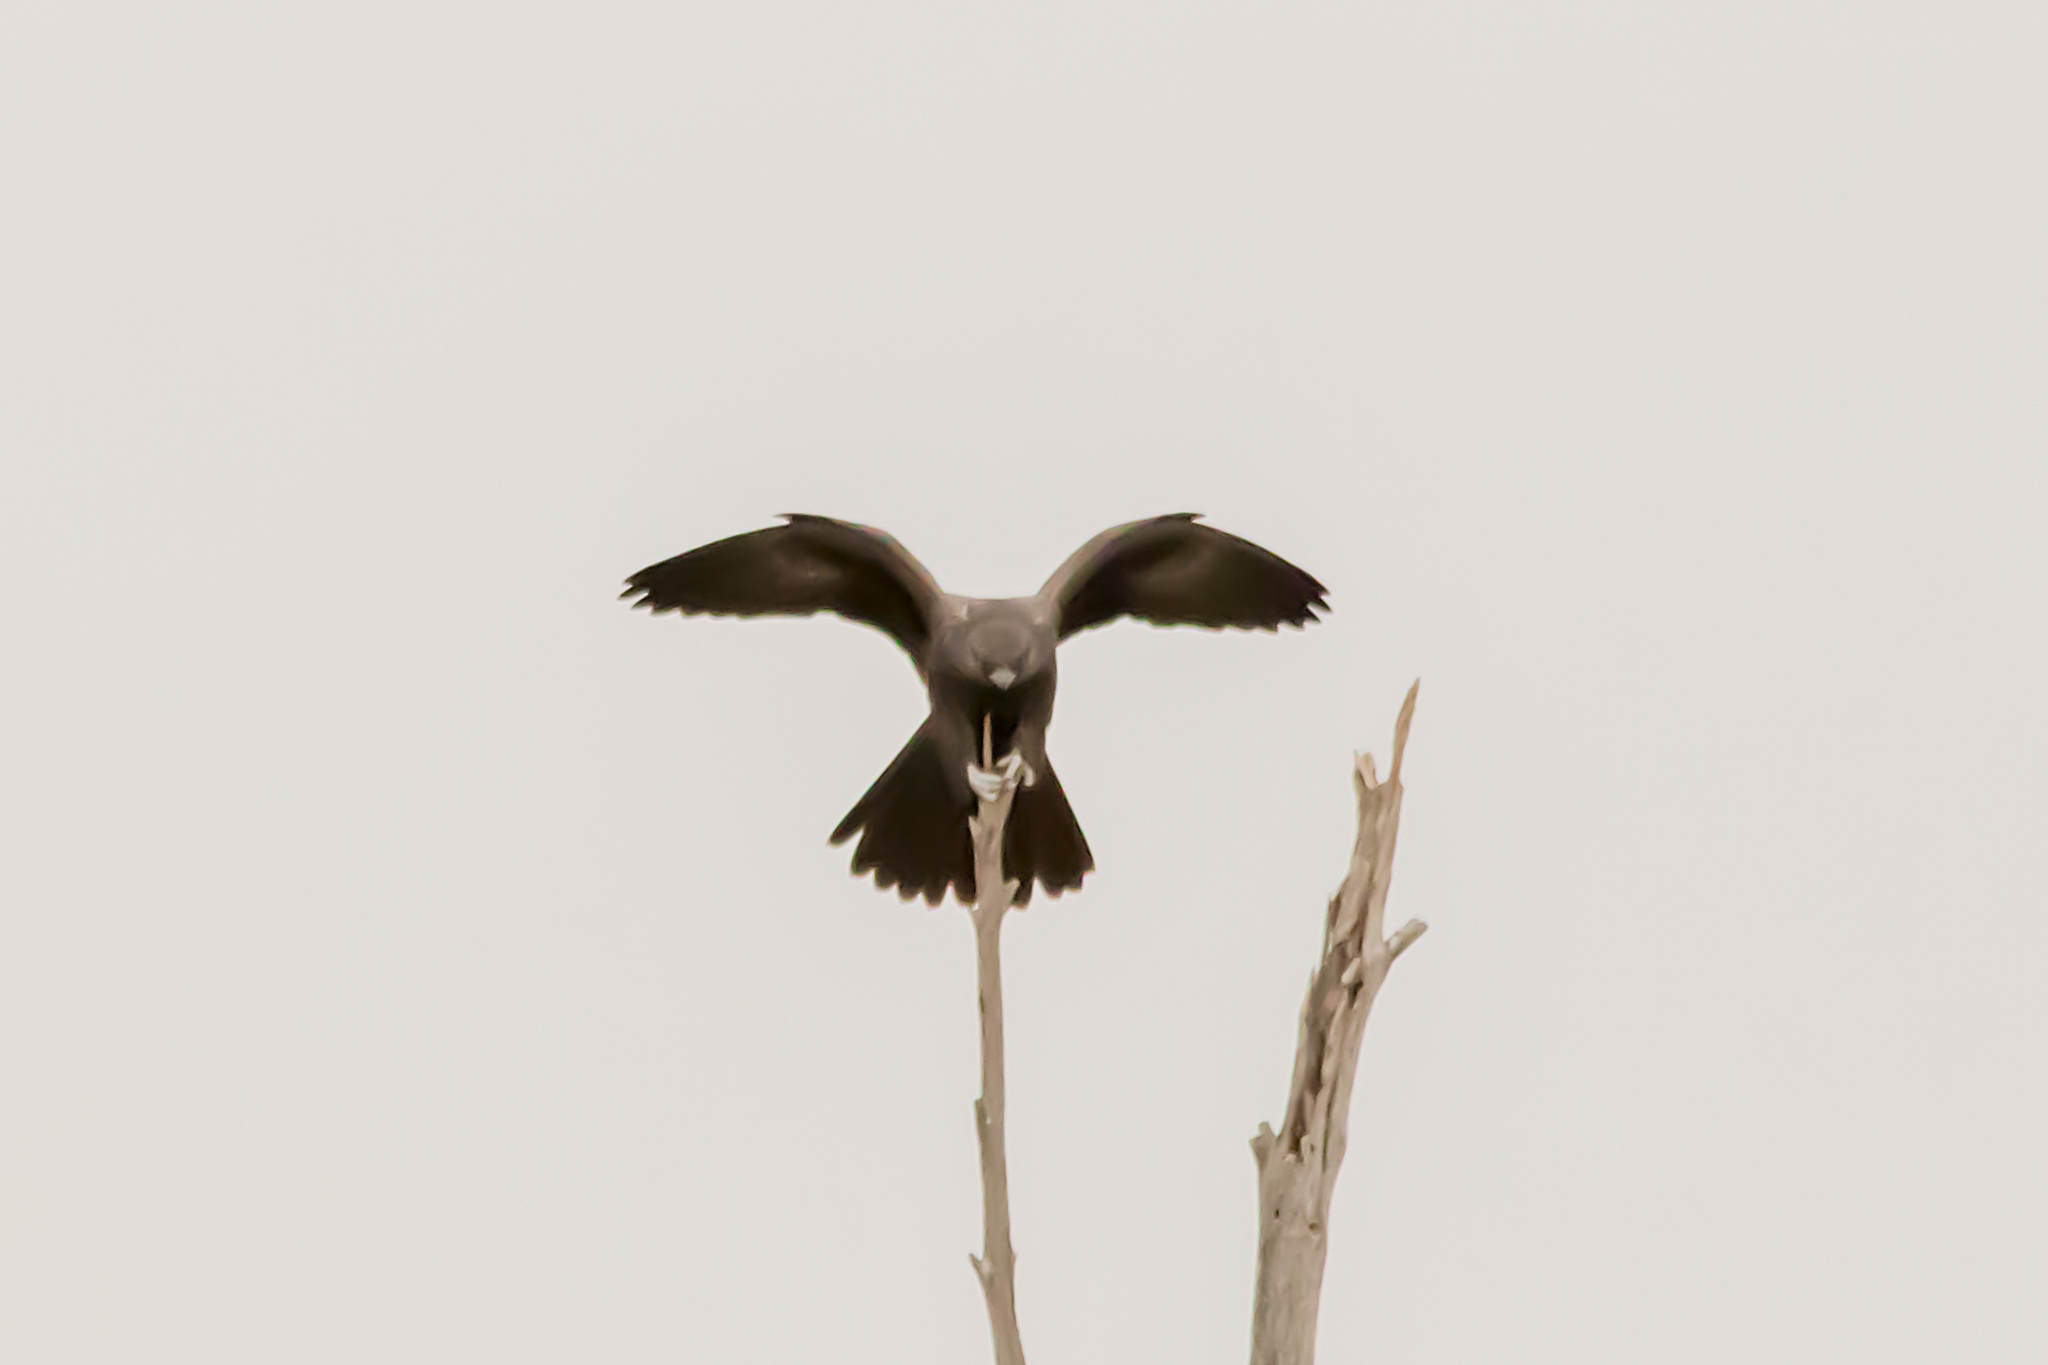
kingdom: Animalia
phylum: Chordata
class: Aves
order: Falconiformes
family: Falconidae
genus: Falco
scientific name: Falco subniger
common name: Black falcon
